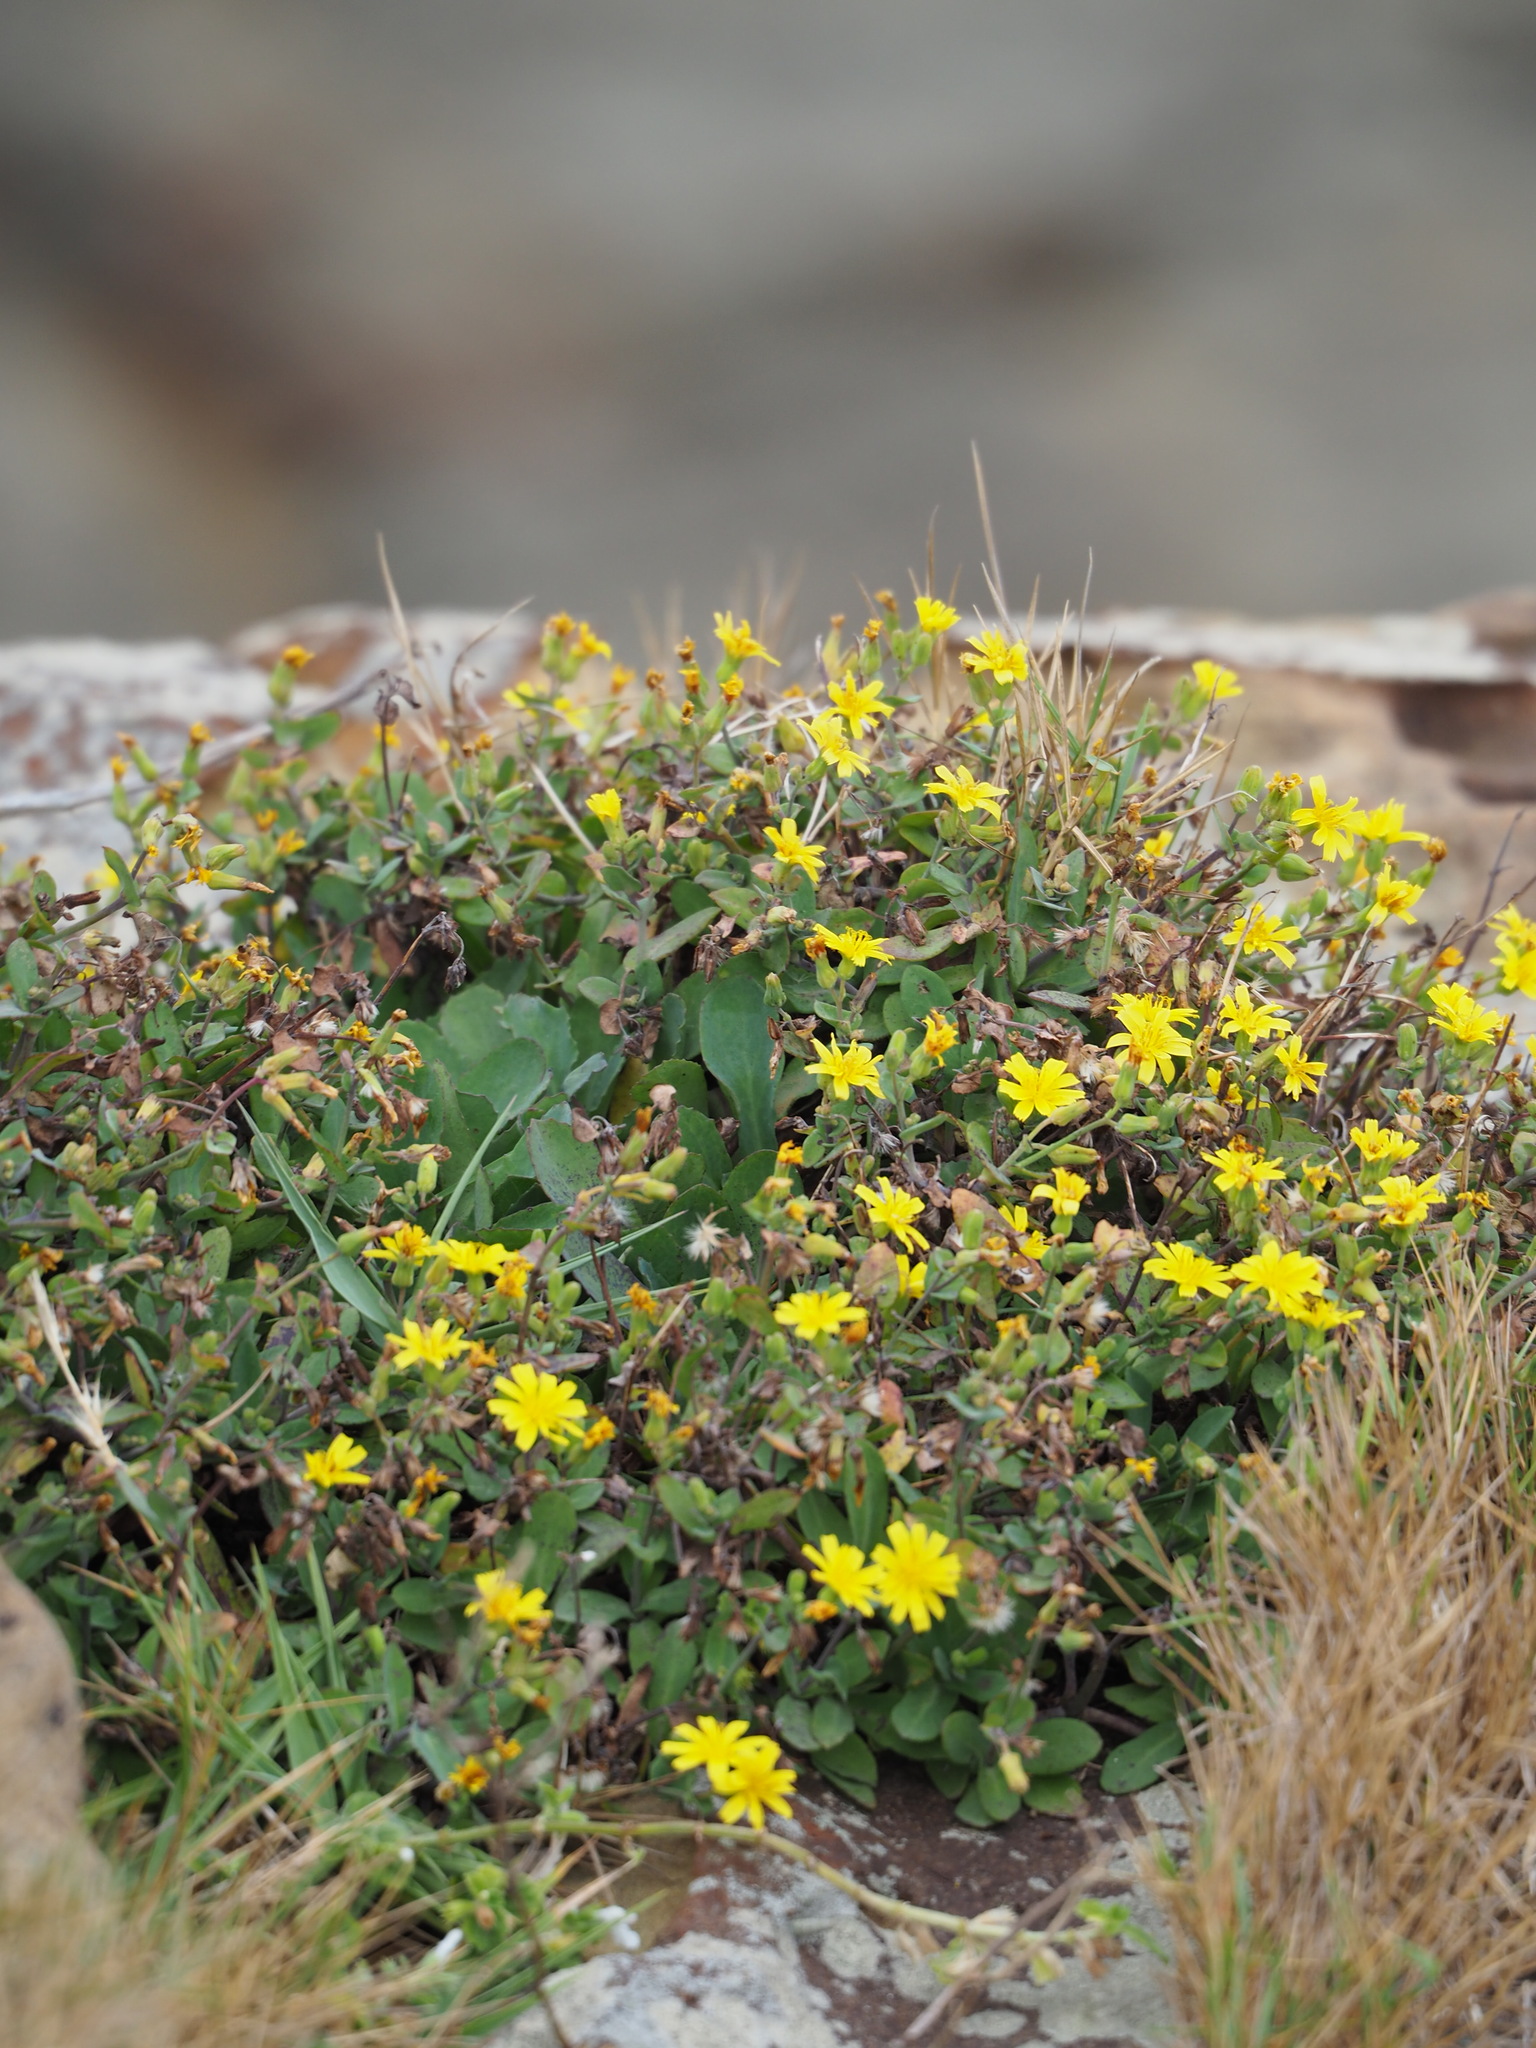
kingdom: Plantae
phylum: Tracheophyta
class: Magnoliopsida
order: Asterales
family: Asteraceae
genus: Crepidiastrum
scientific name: Crepidiastrum taiwanianum
